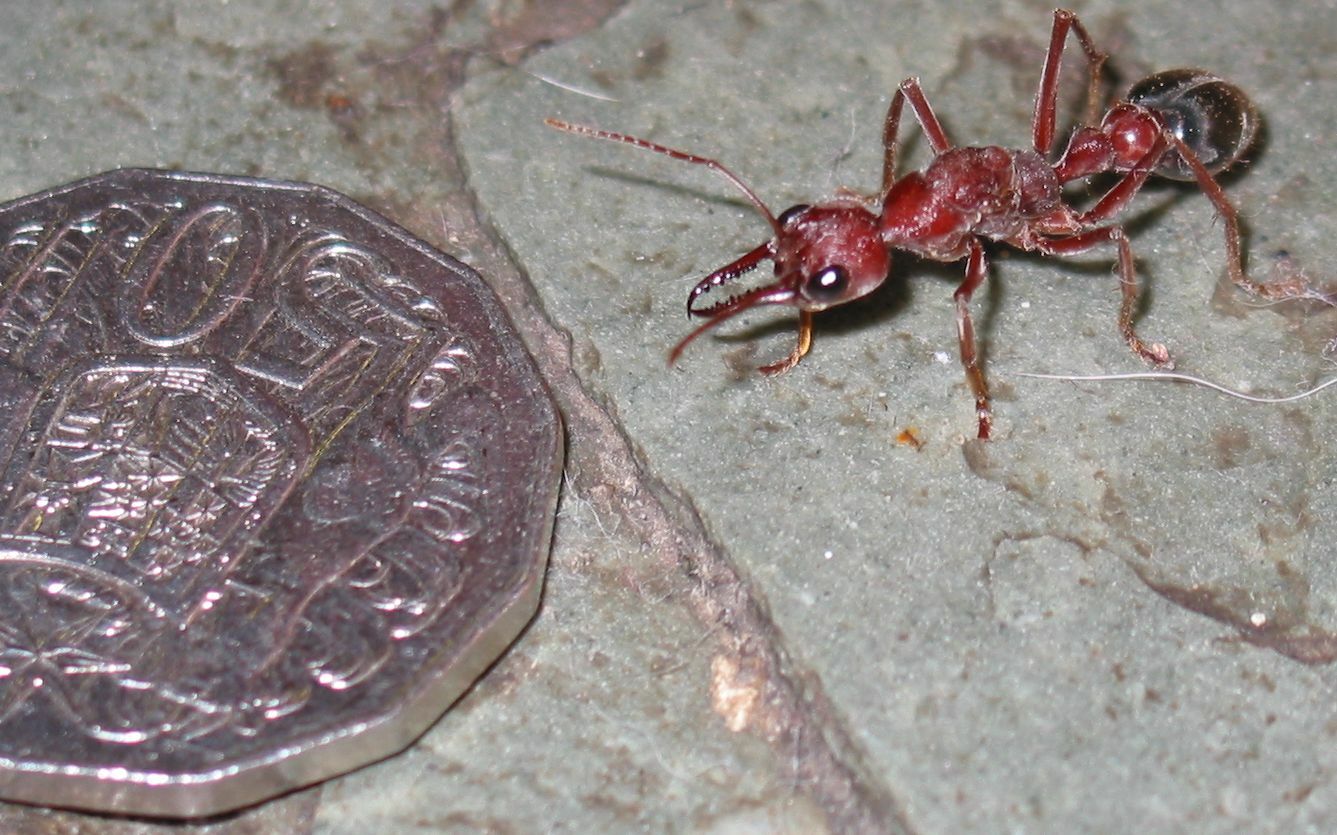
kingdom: Animalia
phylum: Arthropoda
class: Insecta
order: Hymenoptera
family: Formicidae
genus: Myrmecia
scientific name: Myrmecia brevinoda
